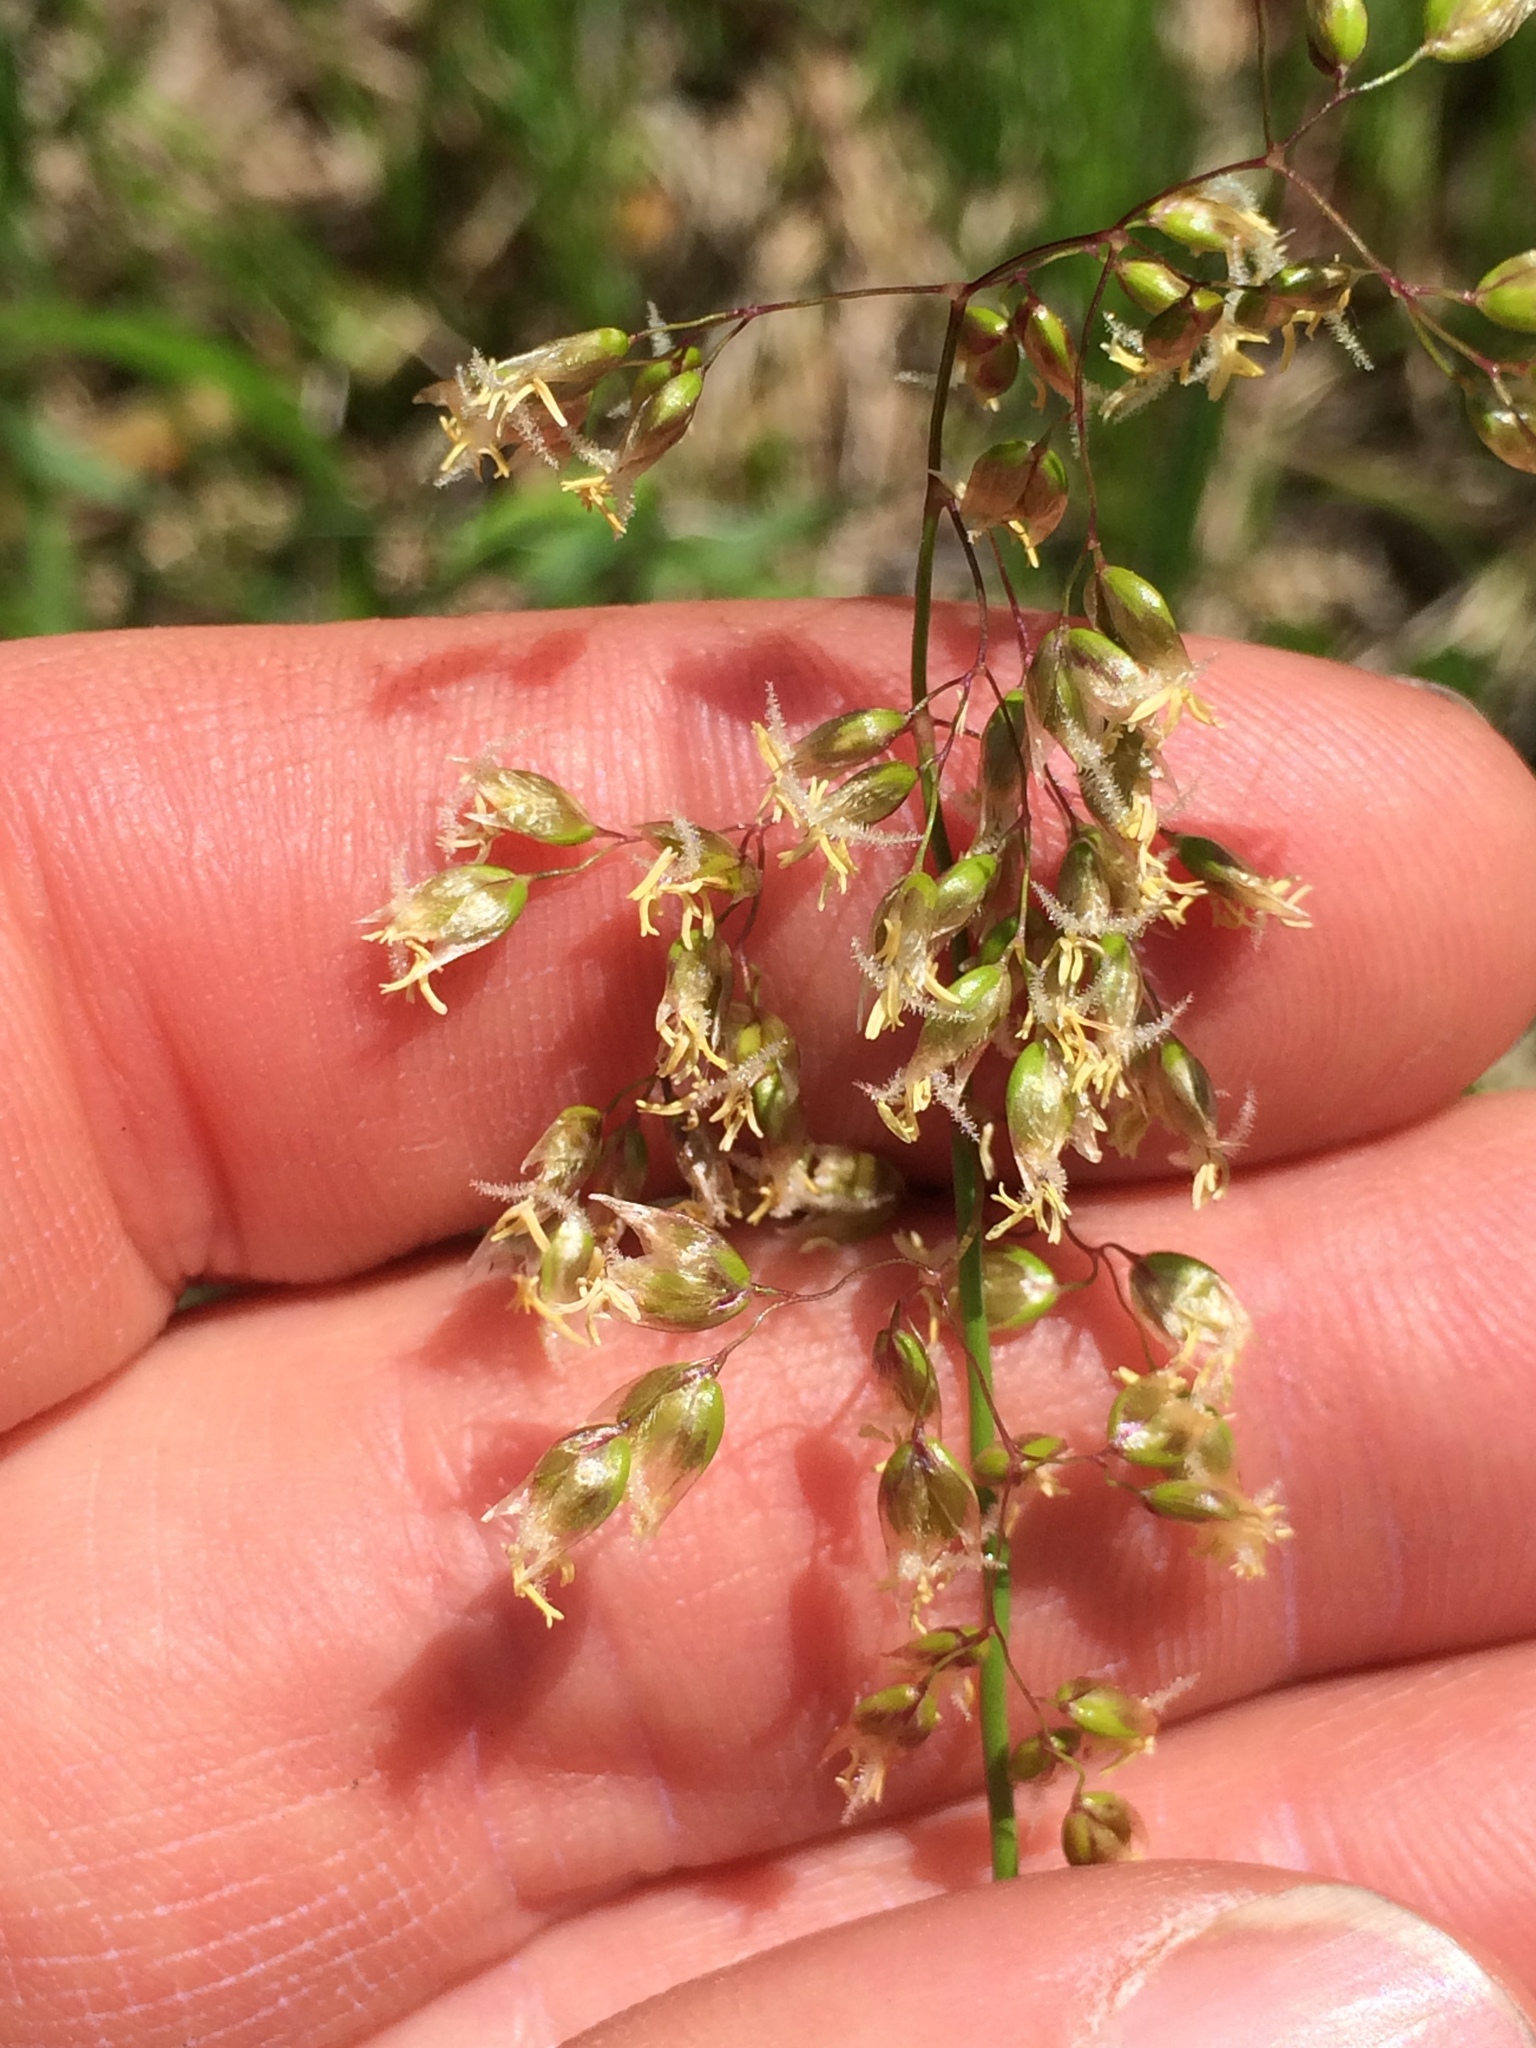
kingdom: Plantae
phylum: Tracheophyta
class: Liliopsida
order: Poales
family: Poaceae
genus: Anthoxanthum
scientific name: Anthoxanthum nitens
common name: Holy grass
